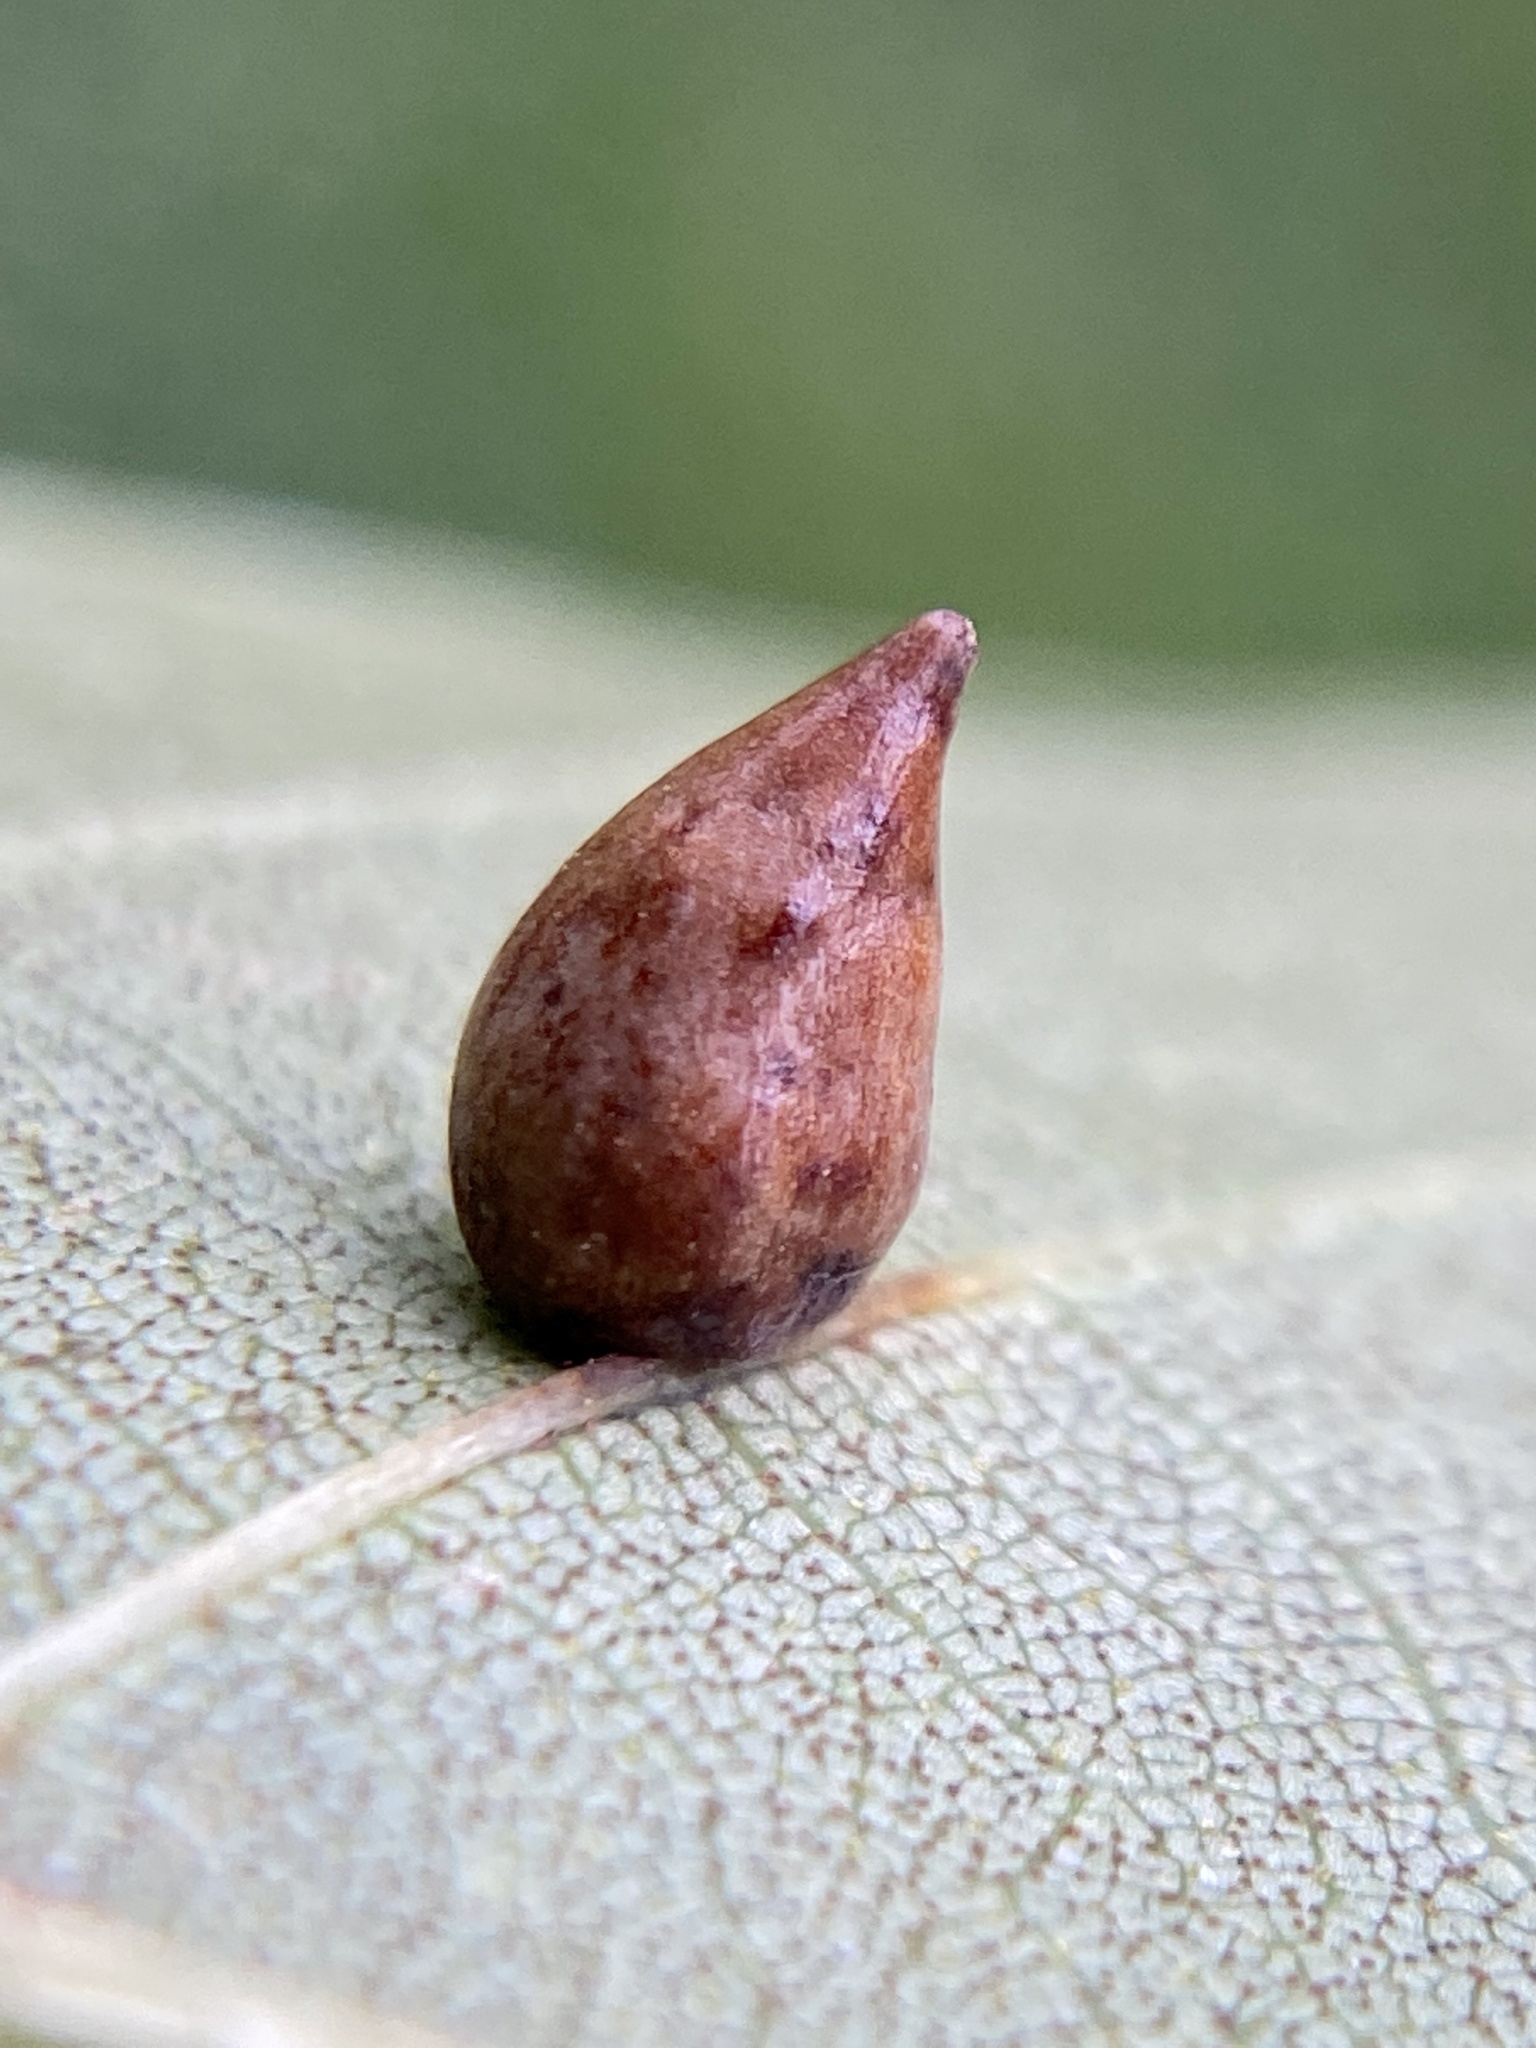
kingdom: Animalia
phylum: Arthropoda
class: Insecta
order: Diptera
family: Cecidomyiidae
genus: Caryomyia
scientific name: Caryomyia caryaecola
